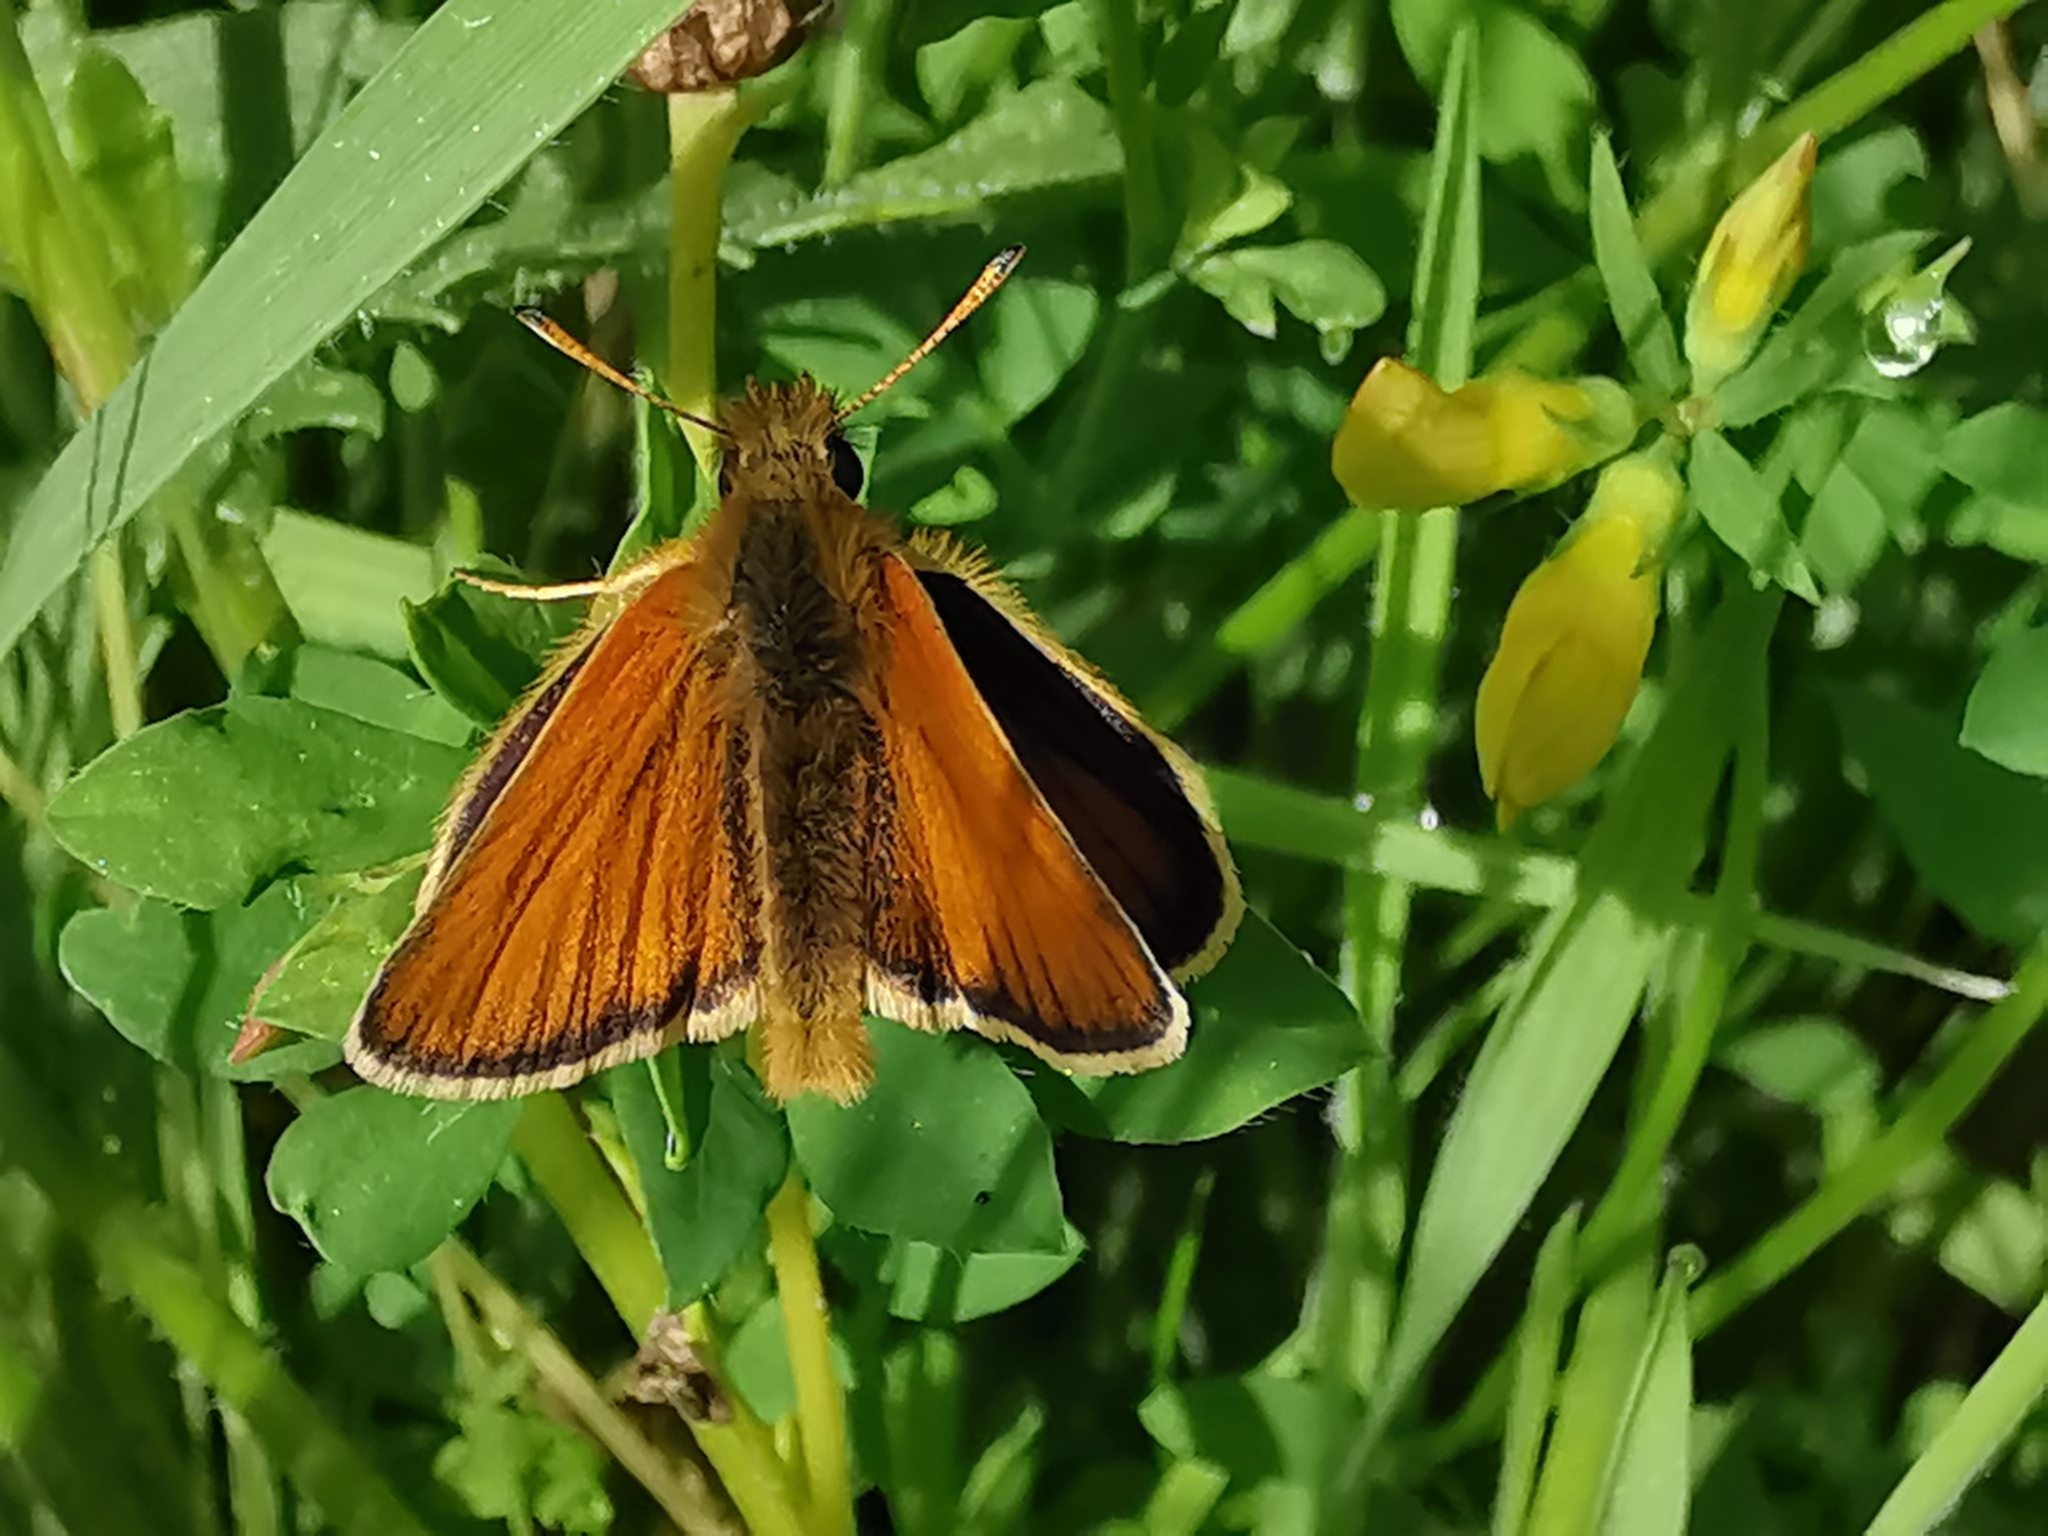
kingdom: Animalia
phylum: Arthropoda
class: Insecta
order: Lepidoptera
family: Hesperiidae
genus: Thymelicus
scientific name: Thymelicus lineola
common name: Essex skipper
